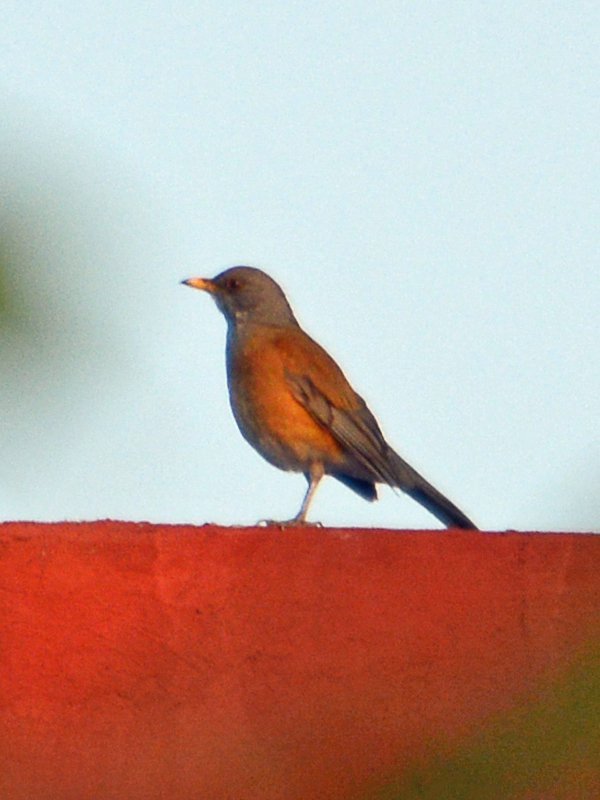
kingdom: Animalia
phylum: Chordata
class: Aves
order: Passeriformes
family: Turdidae
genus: Turdus
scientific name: Turdus rufopalliatus
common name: Rufous-backed robin
